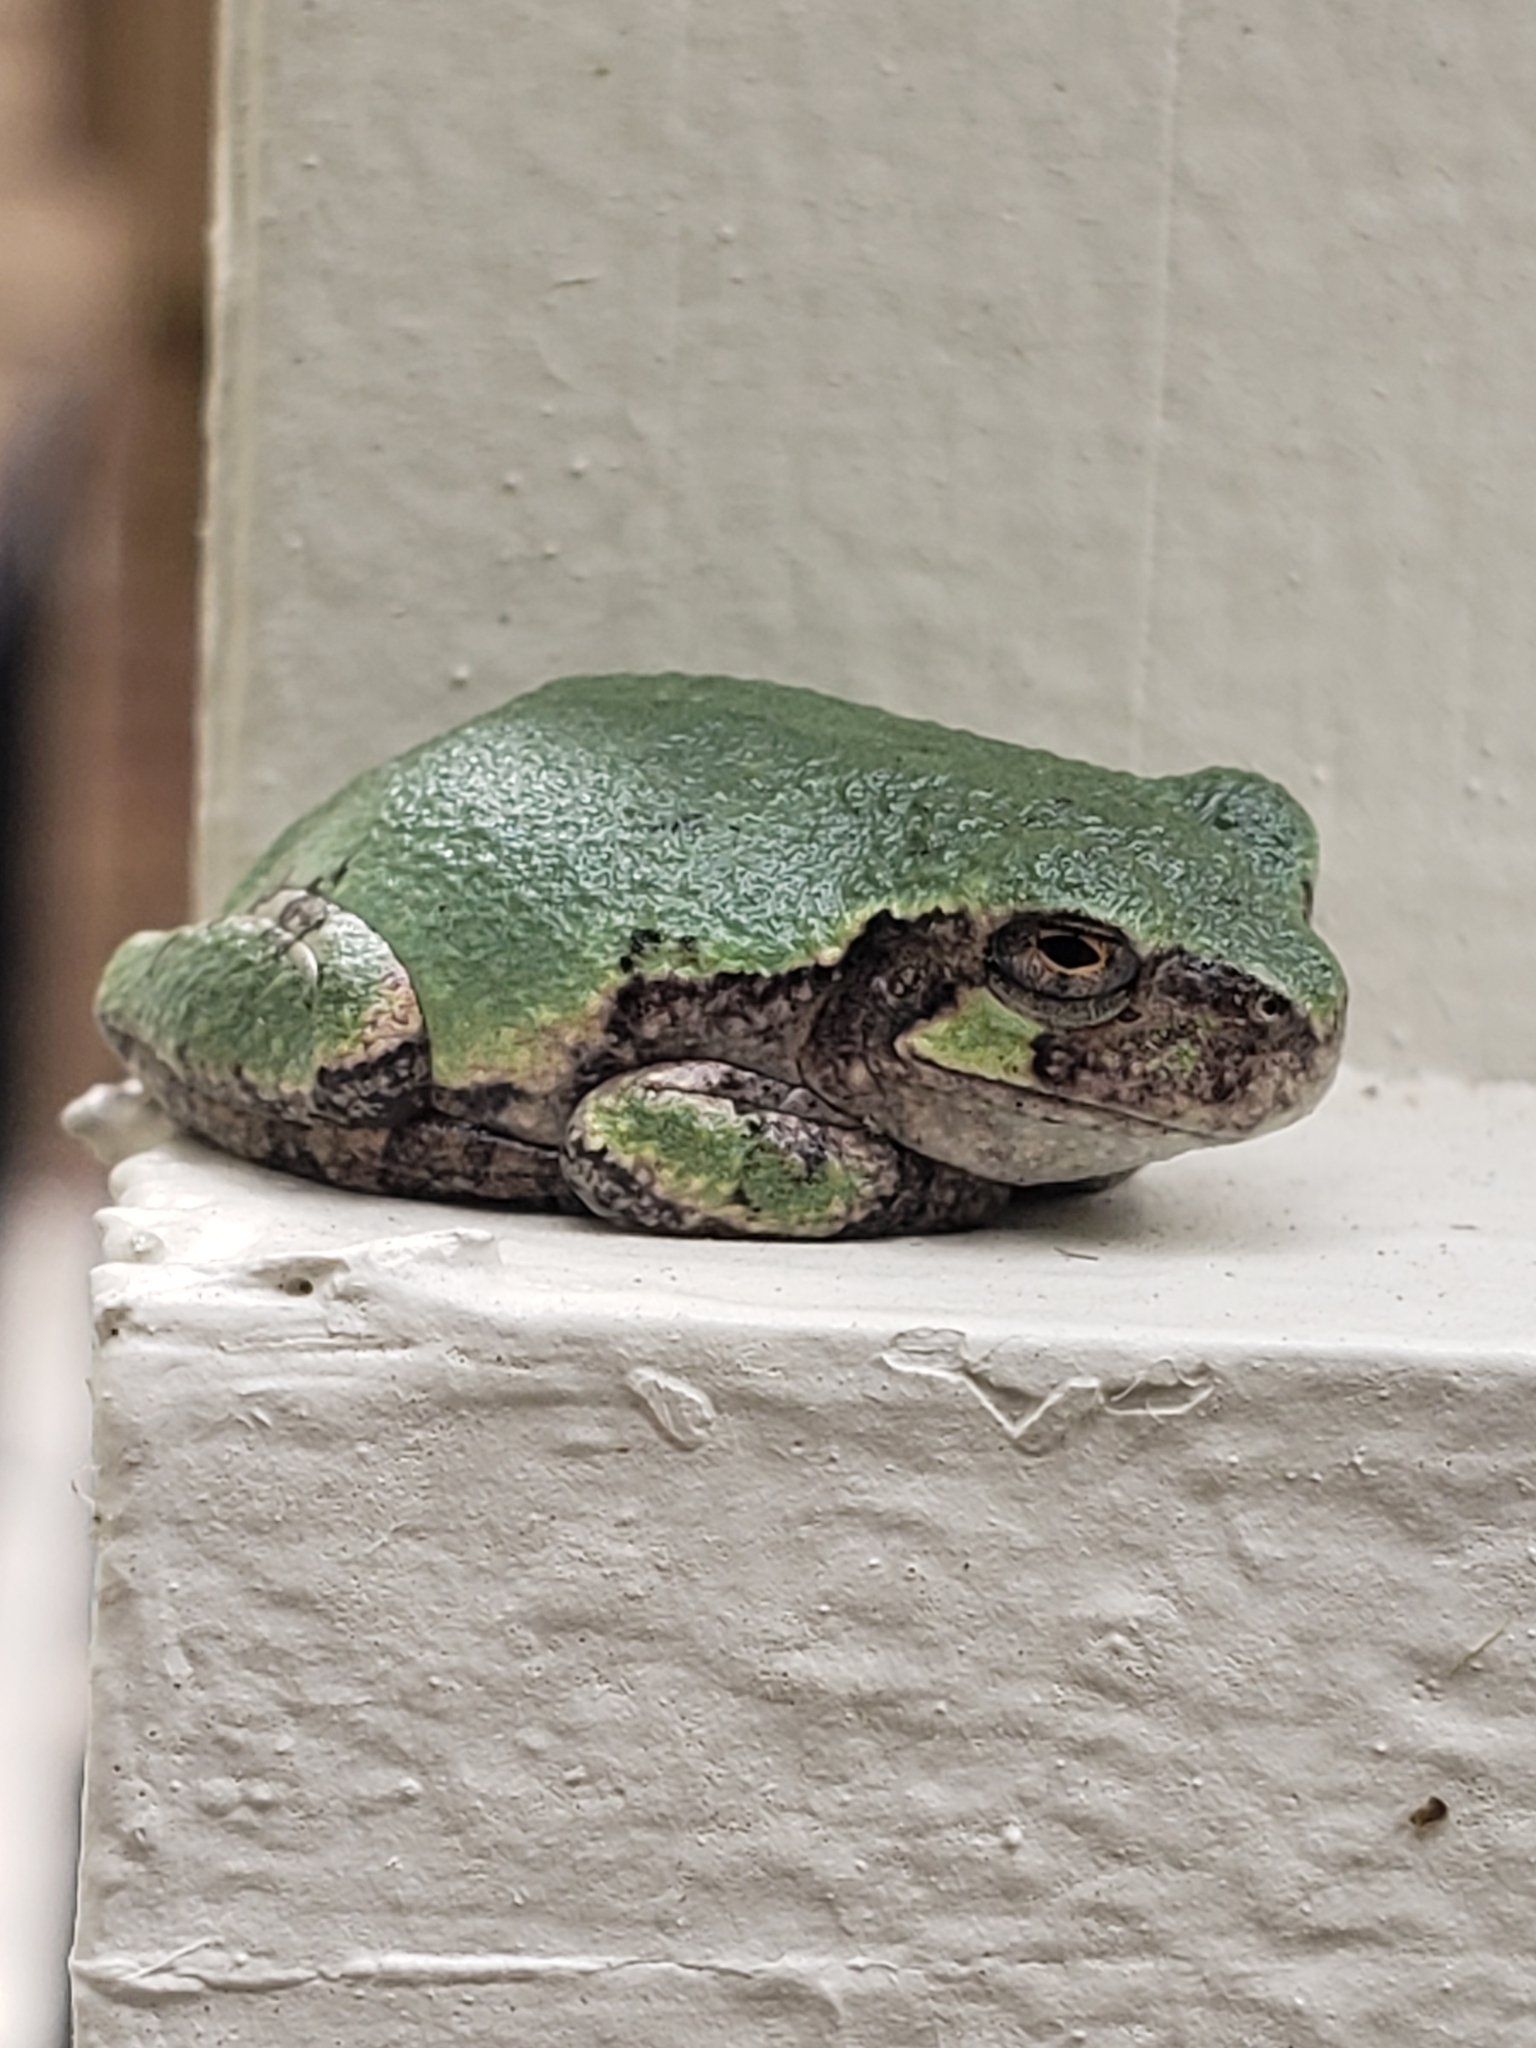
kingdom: Animalia
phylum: Chordata
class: Amphibia
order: Anura
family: Hylidae
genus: Hyla
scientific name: Hyla
